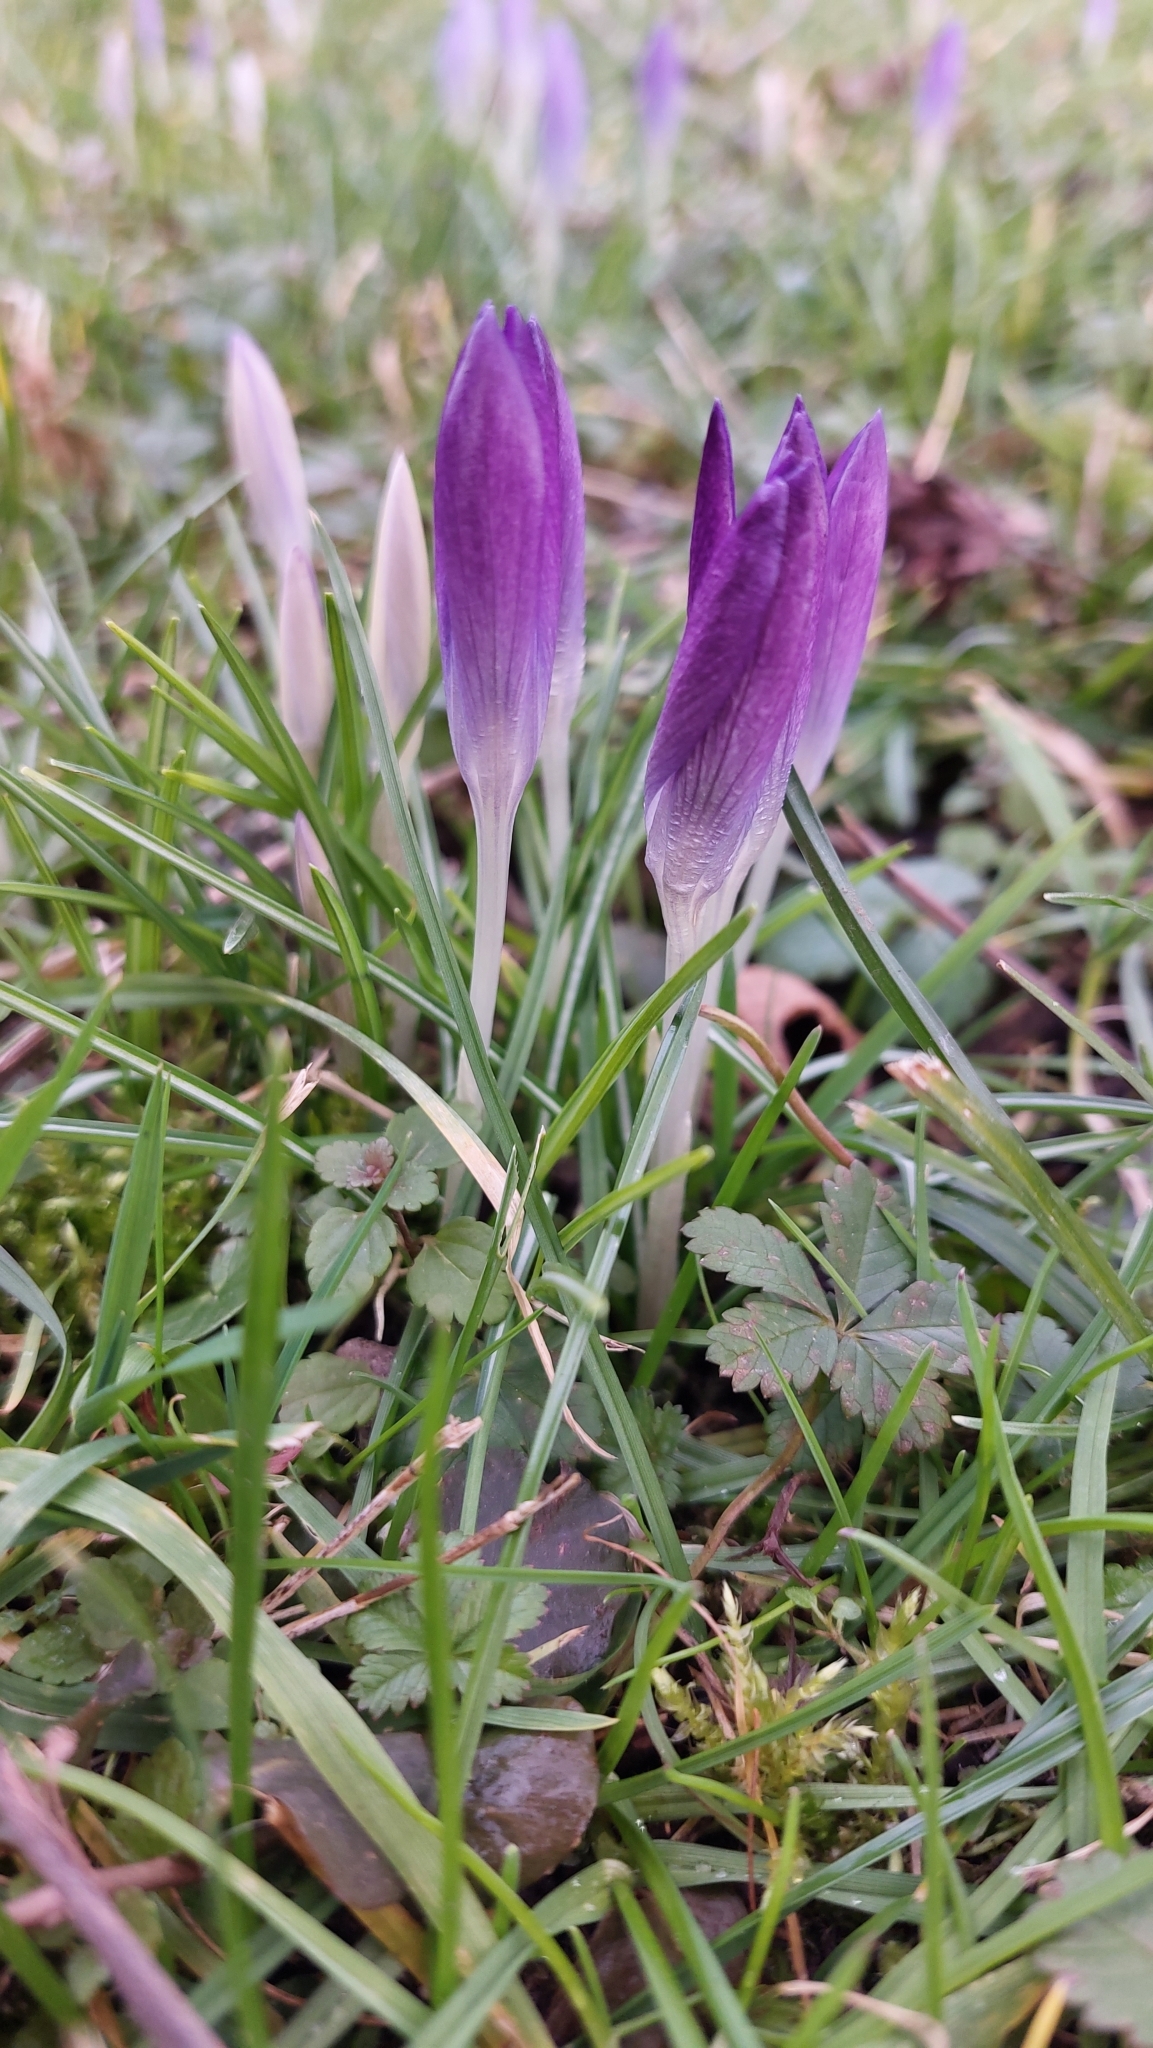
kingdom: Plantae
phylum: Tracheophyta
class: Liliopsida
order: Asparagales
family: Iridaceae
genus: Crocus
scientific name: Crocus tommasinianus
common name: Early crocus
